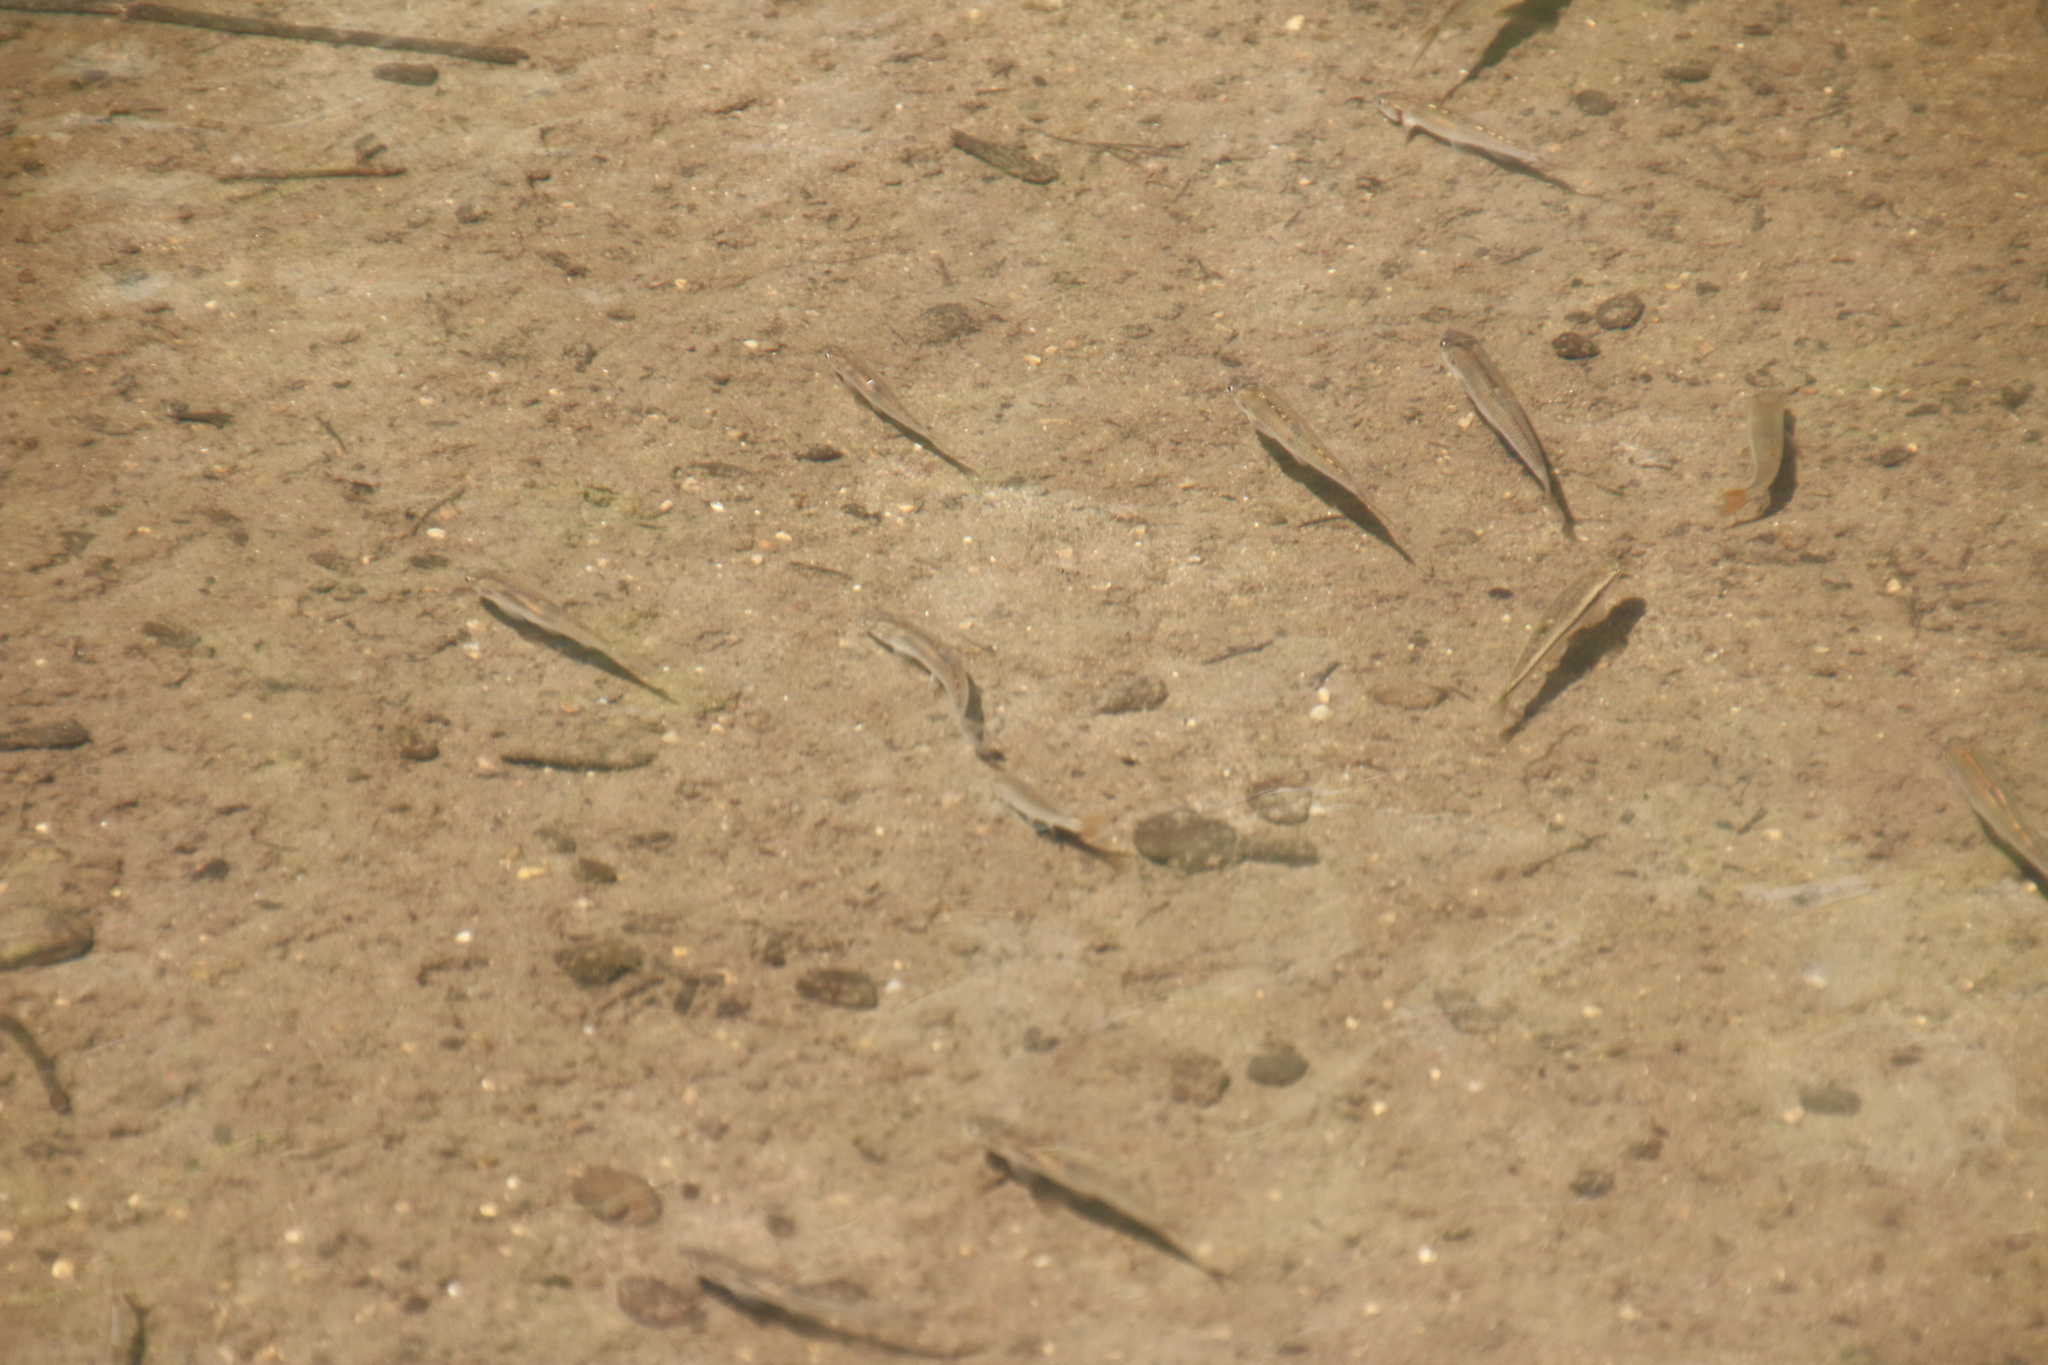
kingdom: Animalia
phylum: Chordata
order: Cypriniformes
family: Cyprinidae
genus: Rhinichthys
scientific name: Rhinichthys obtusus
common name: Western blacknose dace
